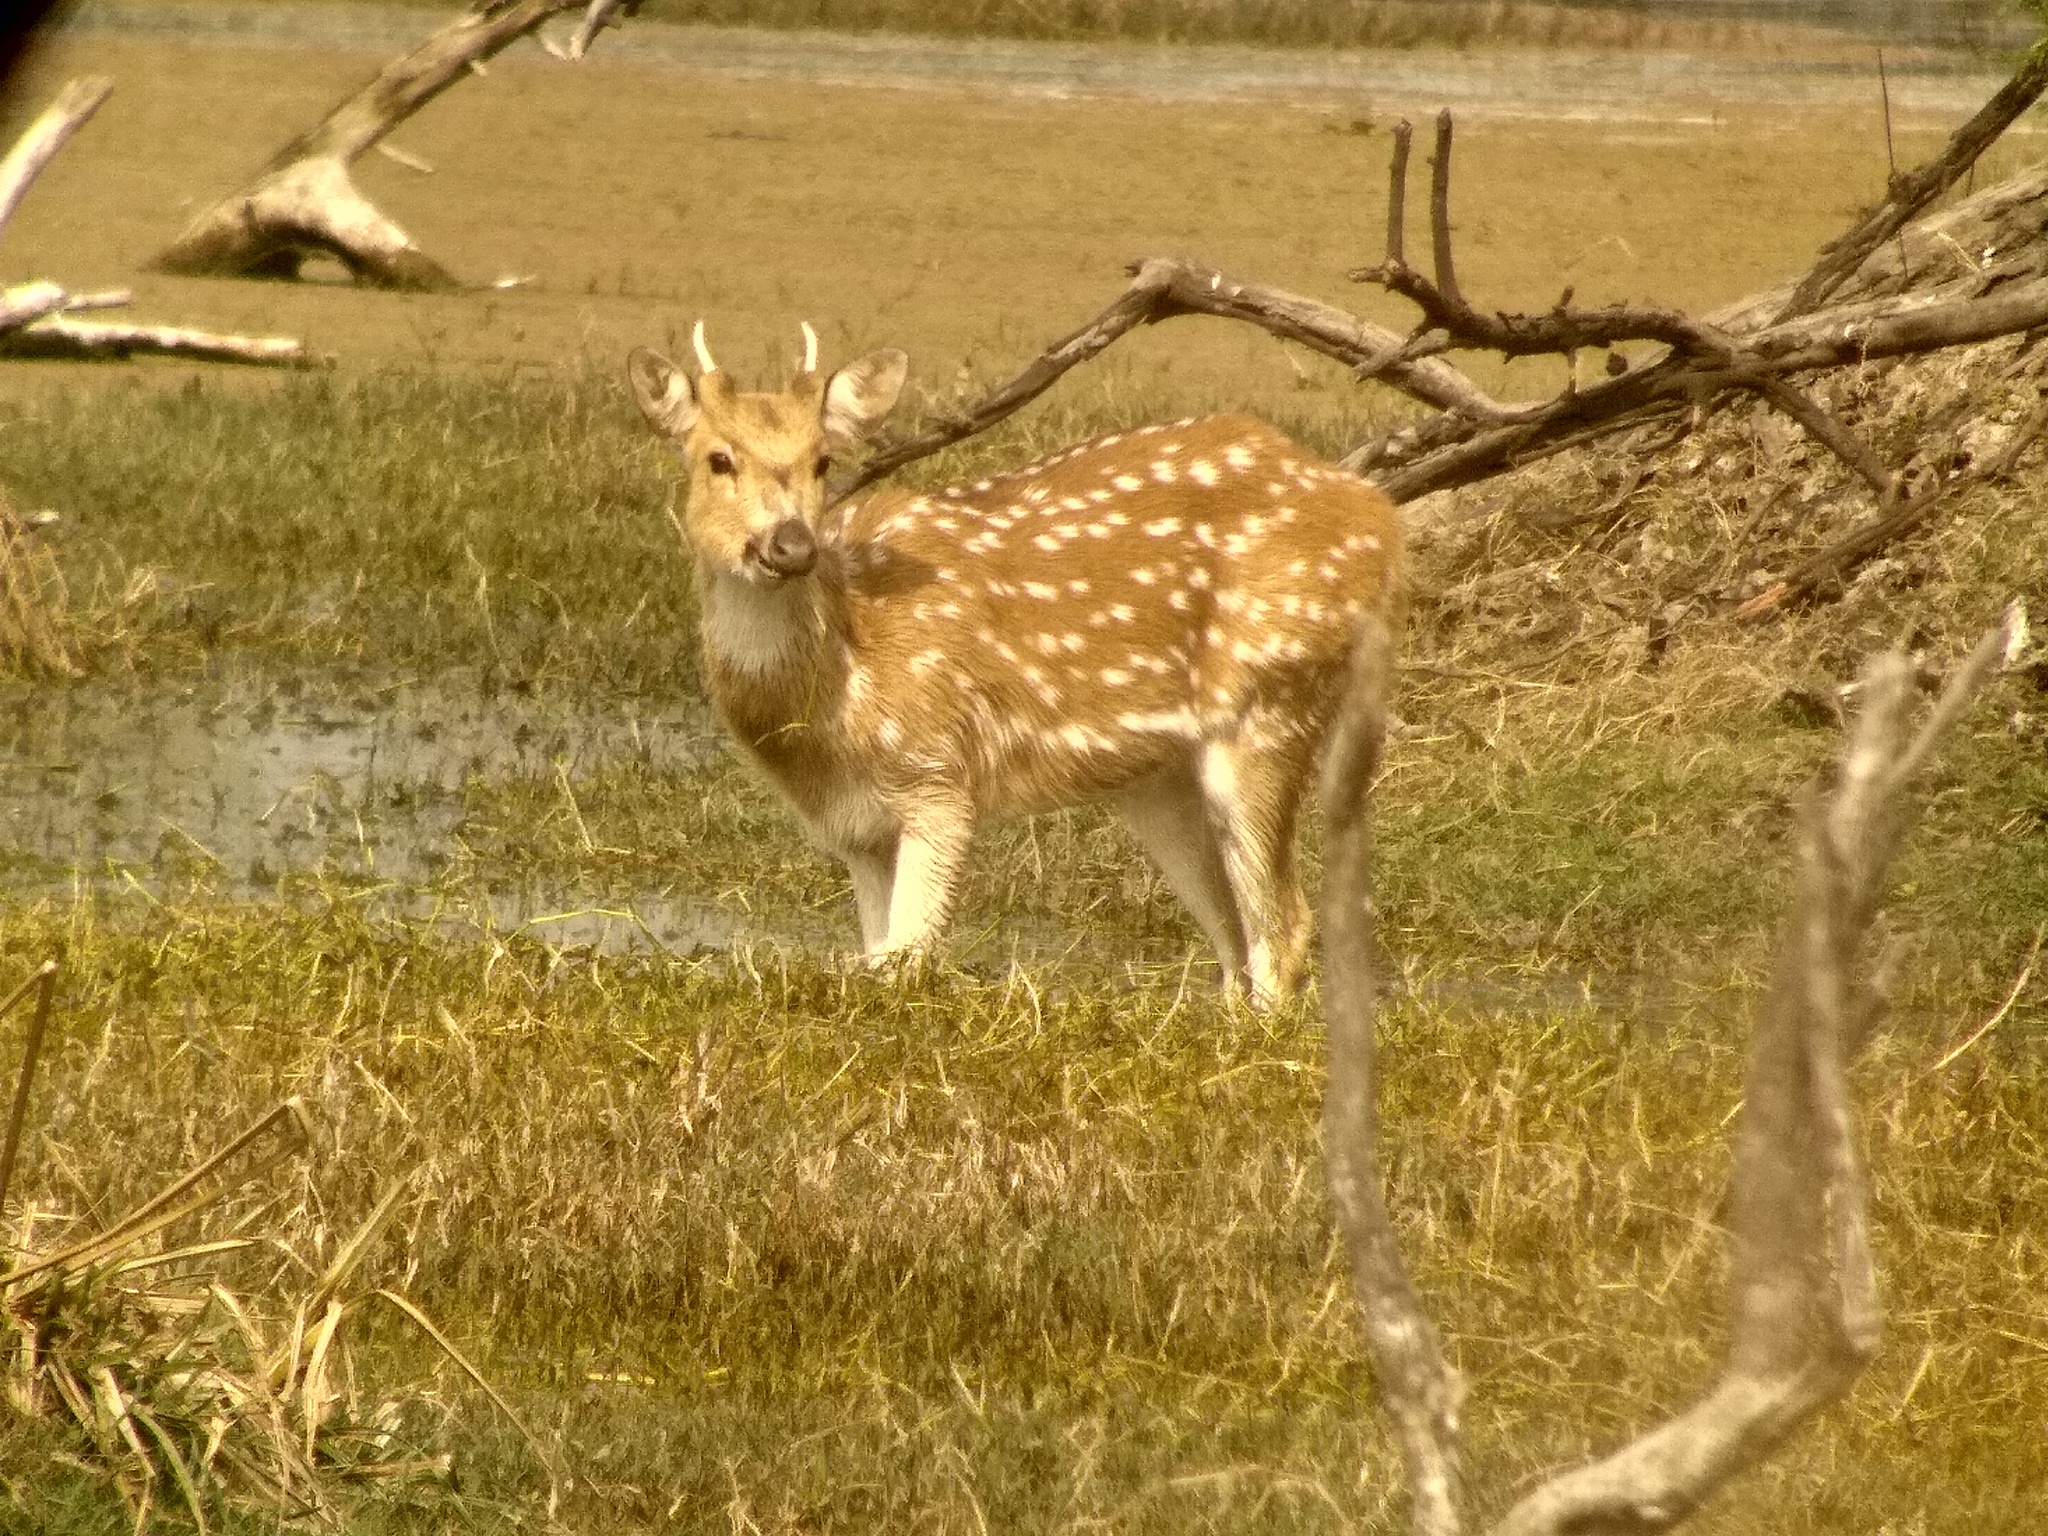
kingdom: Animalia
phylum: Chordata
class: Mammalia
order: Artiodactyla
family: Cervidae
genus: Axis
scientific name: Axis axis
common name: Chital
